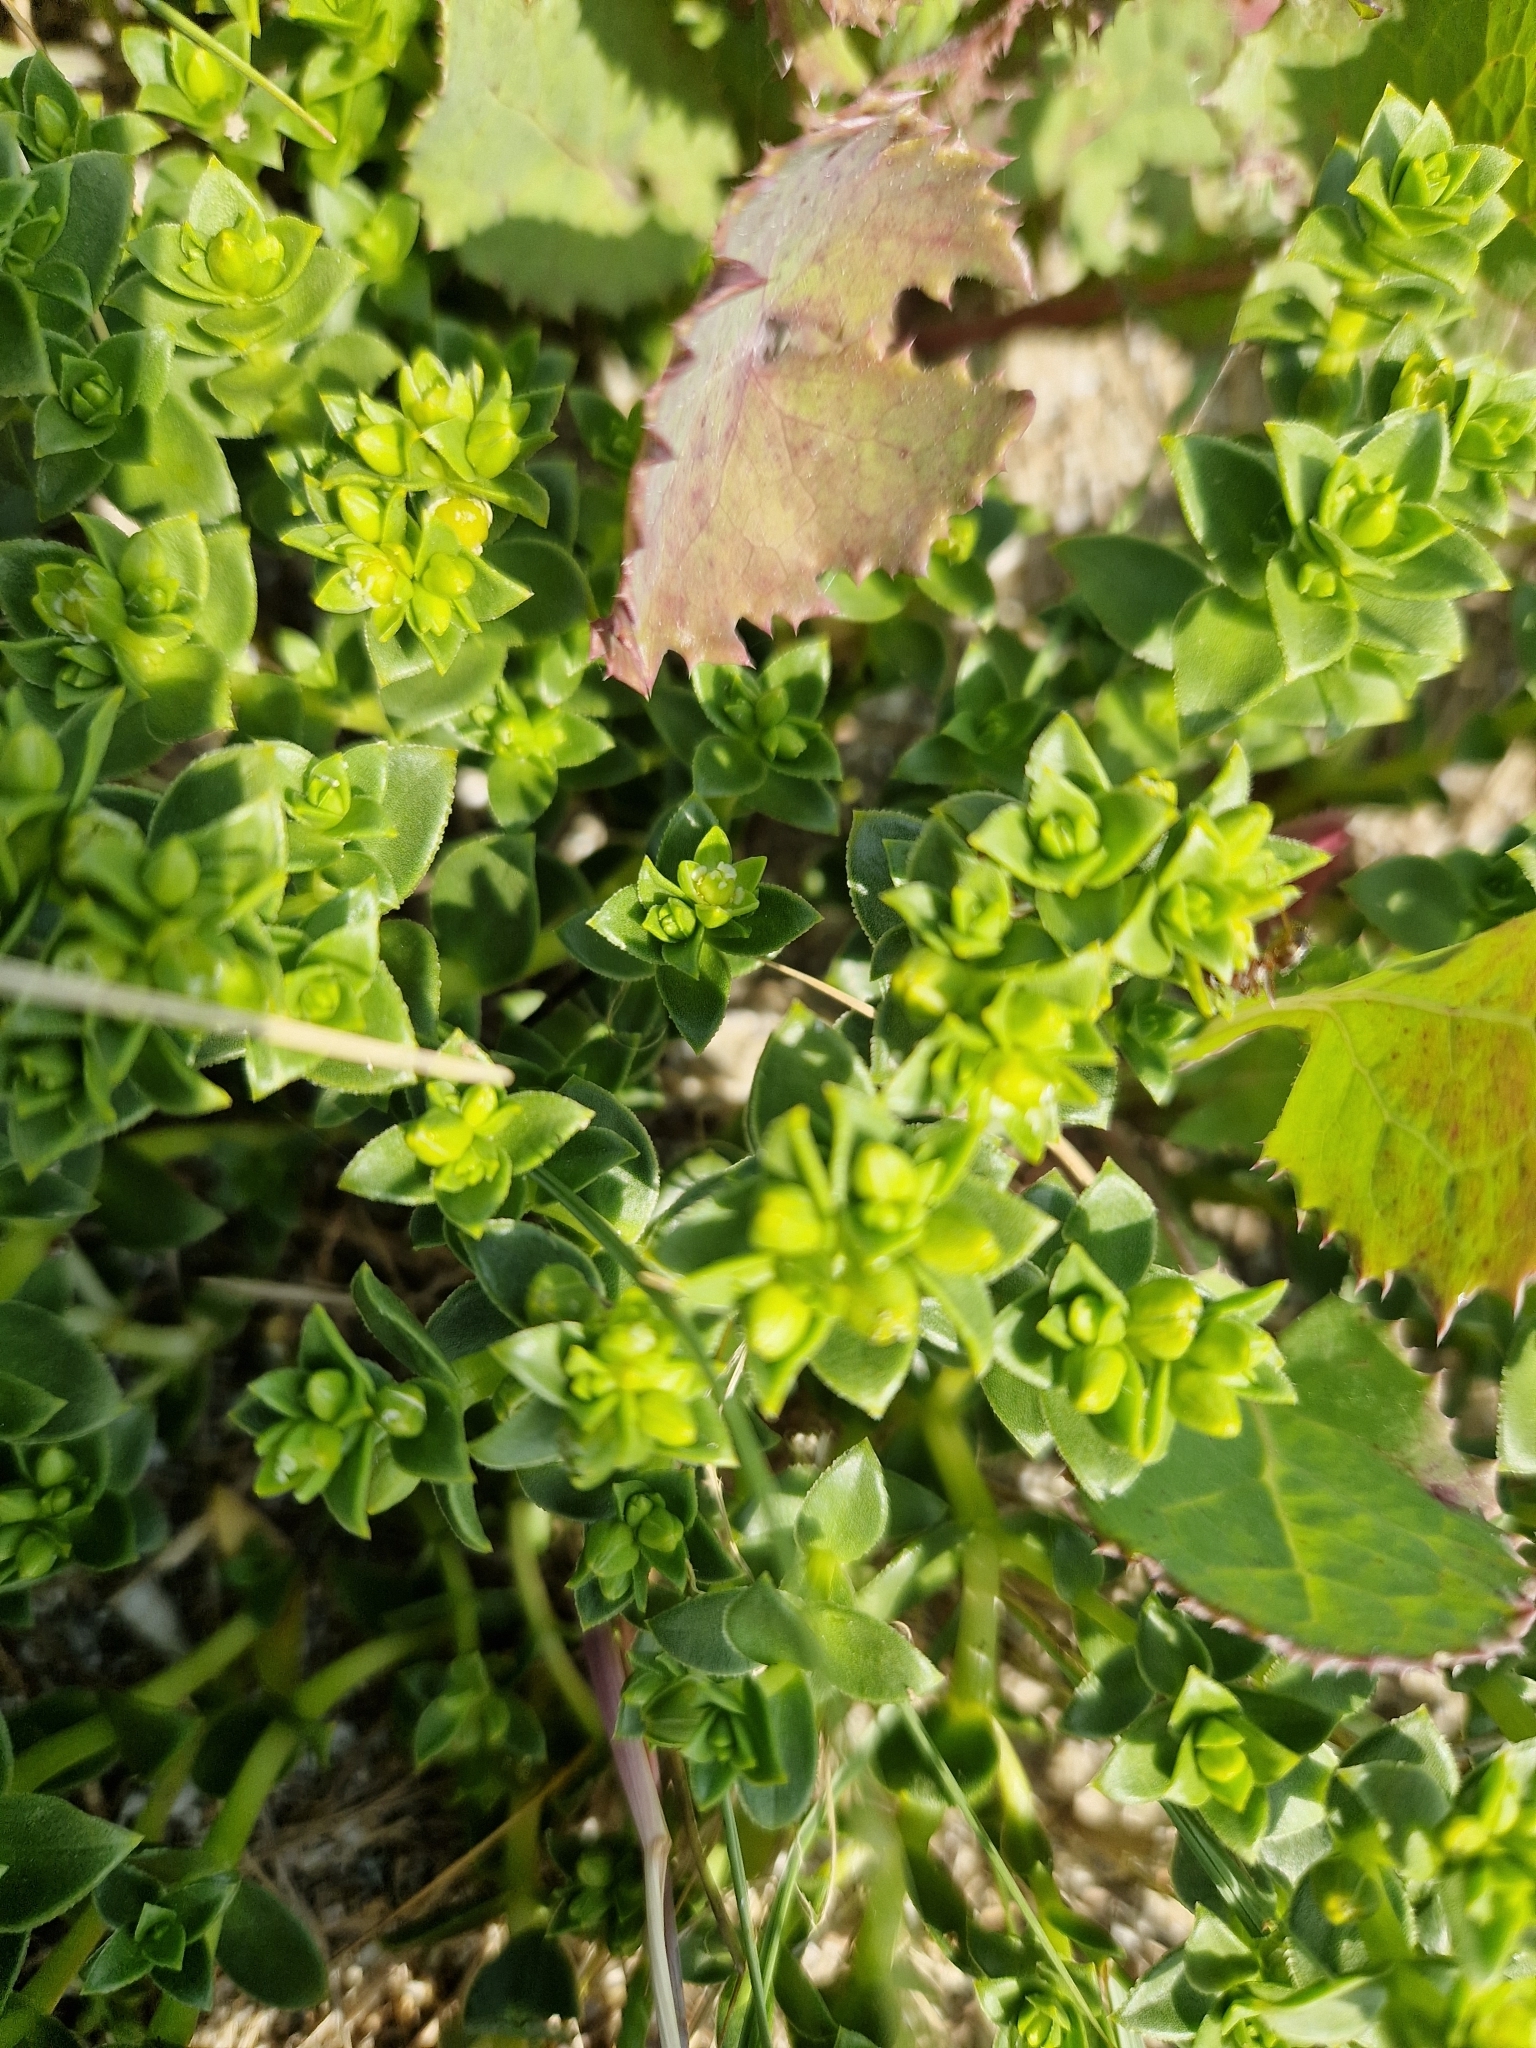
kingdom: Plantae
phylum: Tracheophyta
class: Magnoliopsida
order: Caryophyllales
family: Caryophyllaceae
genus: Honckenya
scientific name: Honckenya peploides
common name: Sea sandwort
